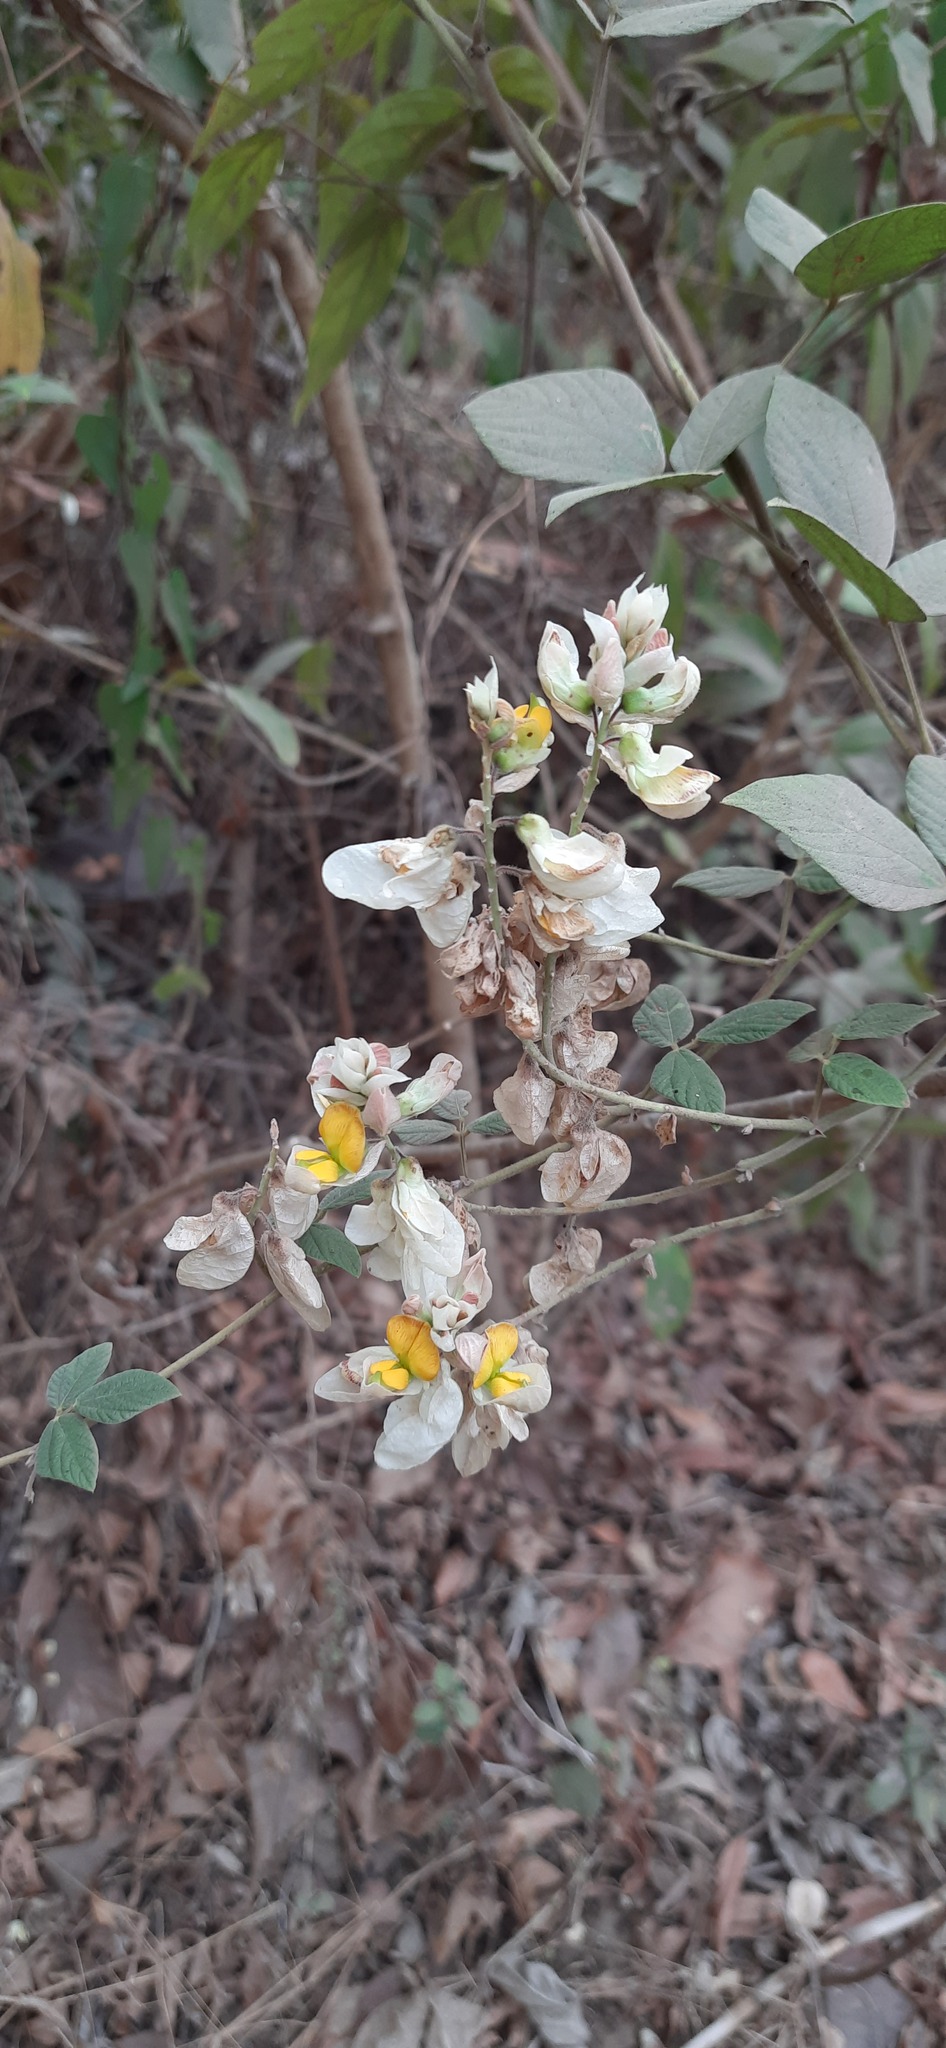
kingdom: Plantae
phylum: Tracheophyta
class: Magnoliopsida
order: Fabales
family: Fabaceae
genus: Paracalyx
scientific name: Paracalyx scariosus
